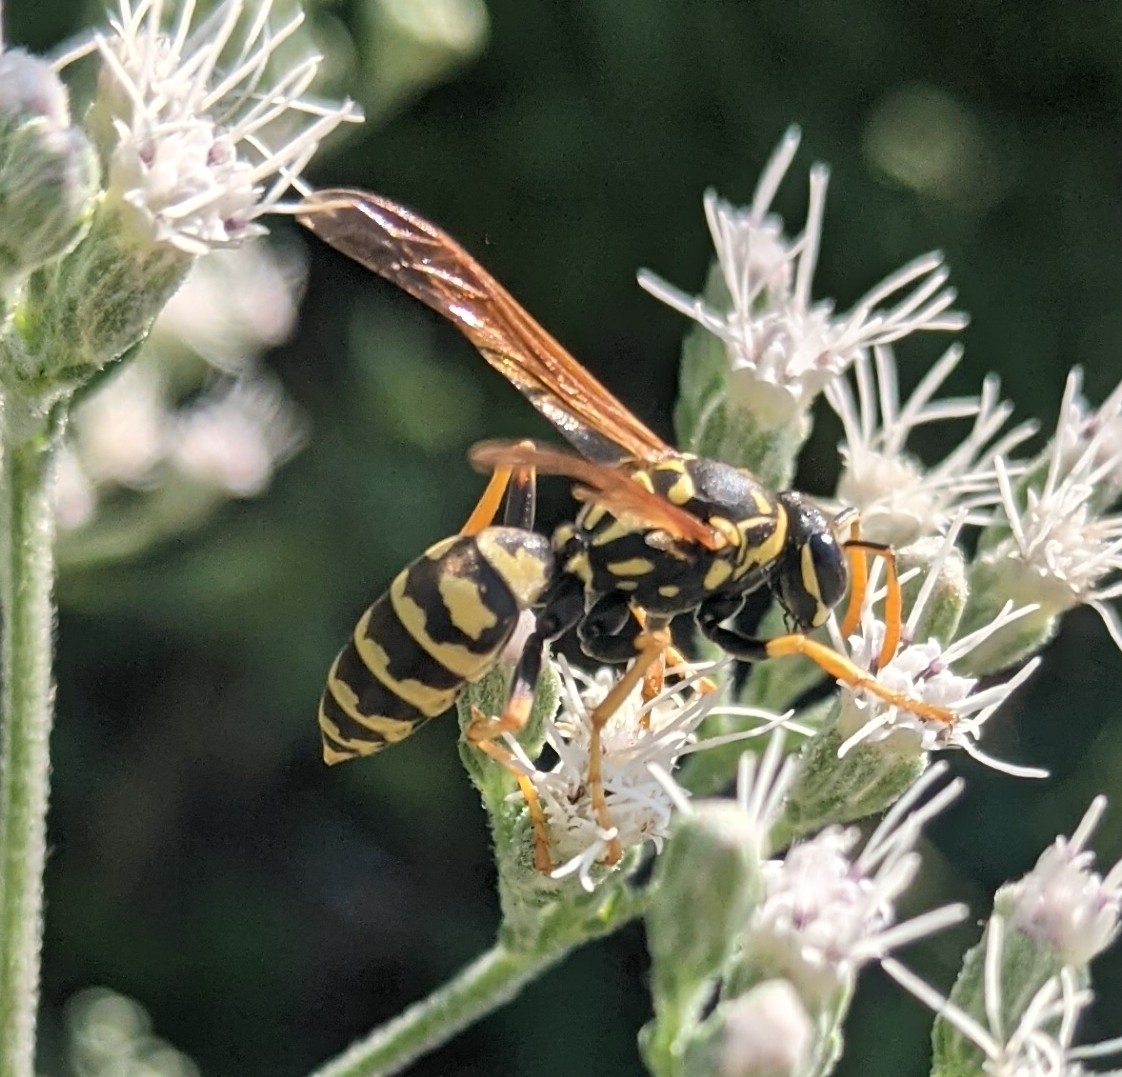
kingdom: Animalia
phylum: Arthropoda
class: Insecta
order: Hymenoptera
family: Eumenidae
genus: Polistes
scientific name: Polistes dominula
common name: Paper wasp
